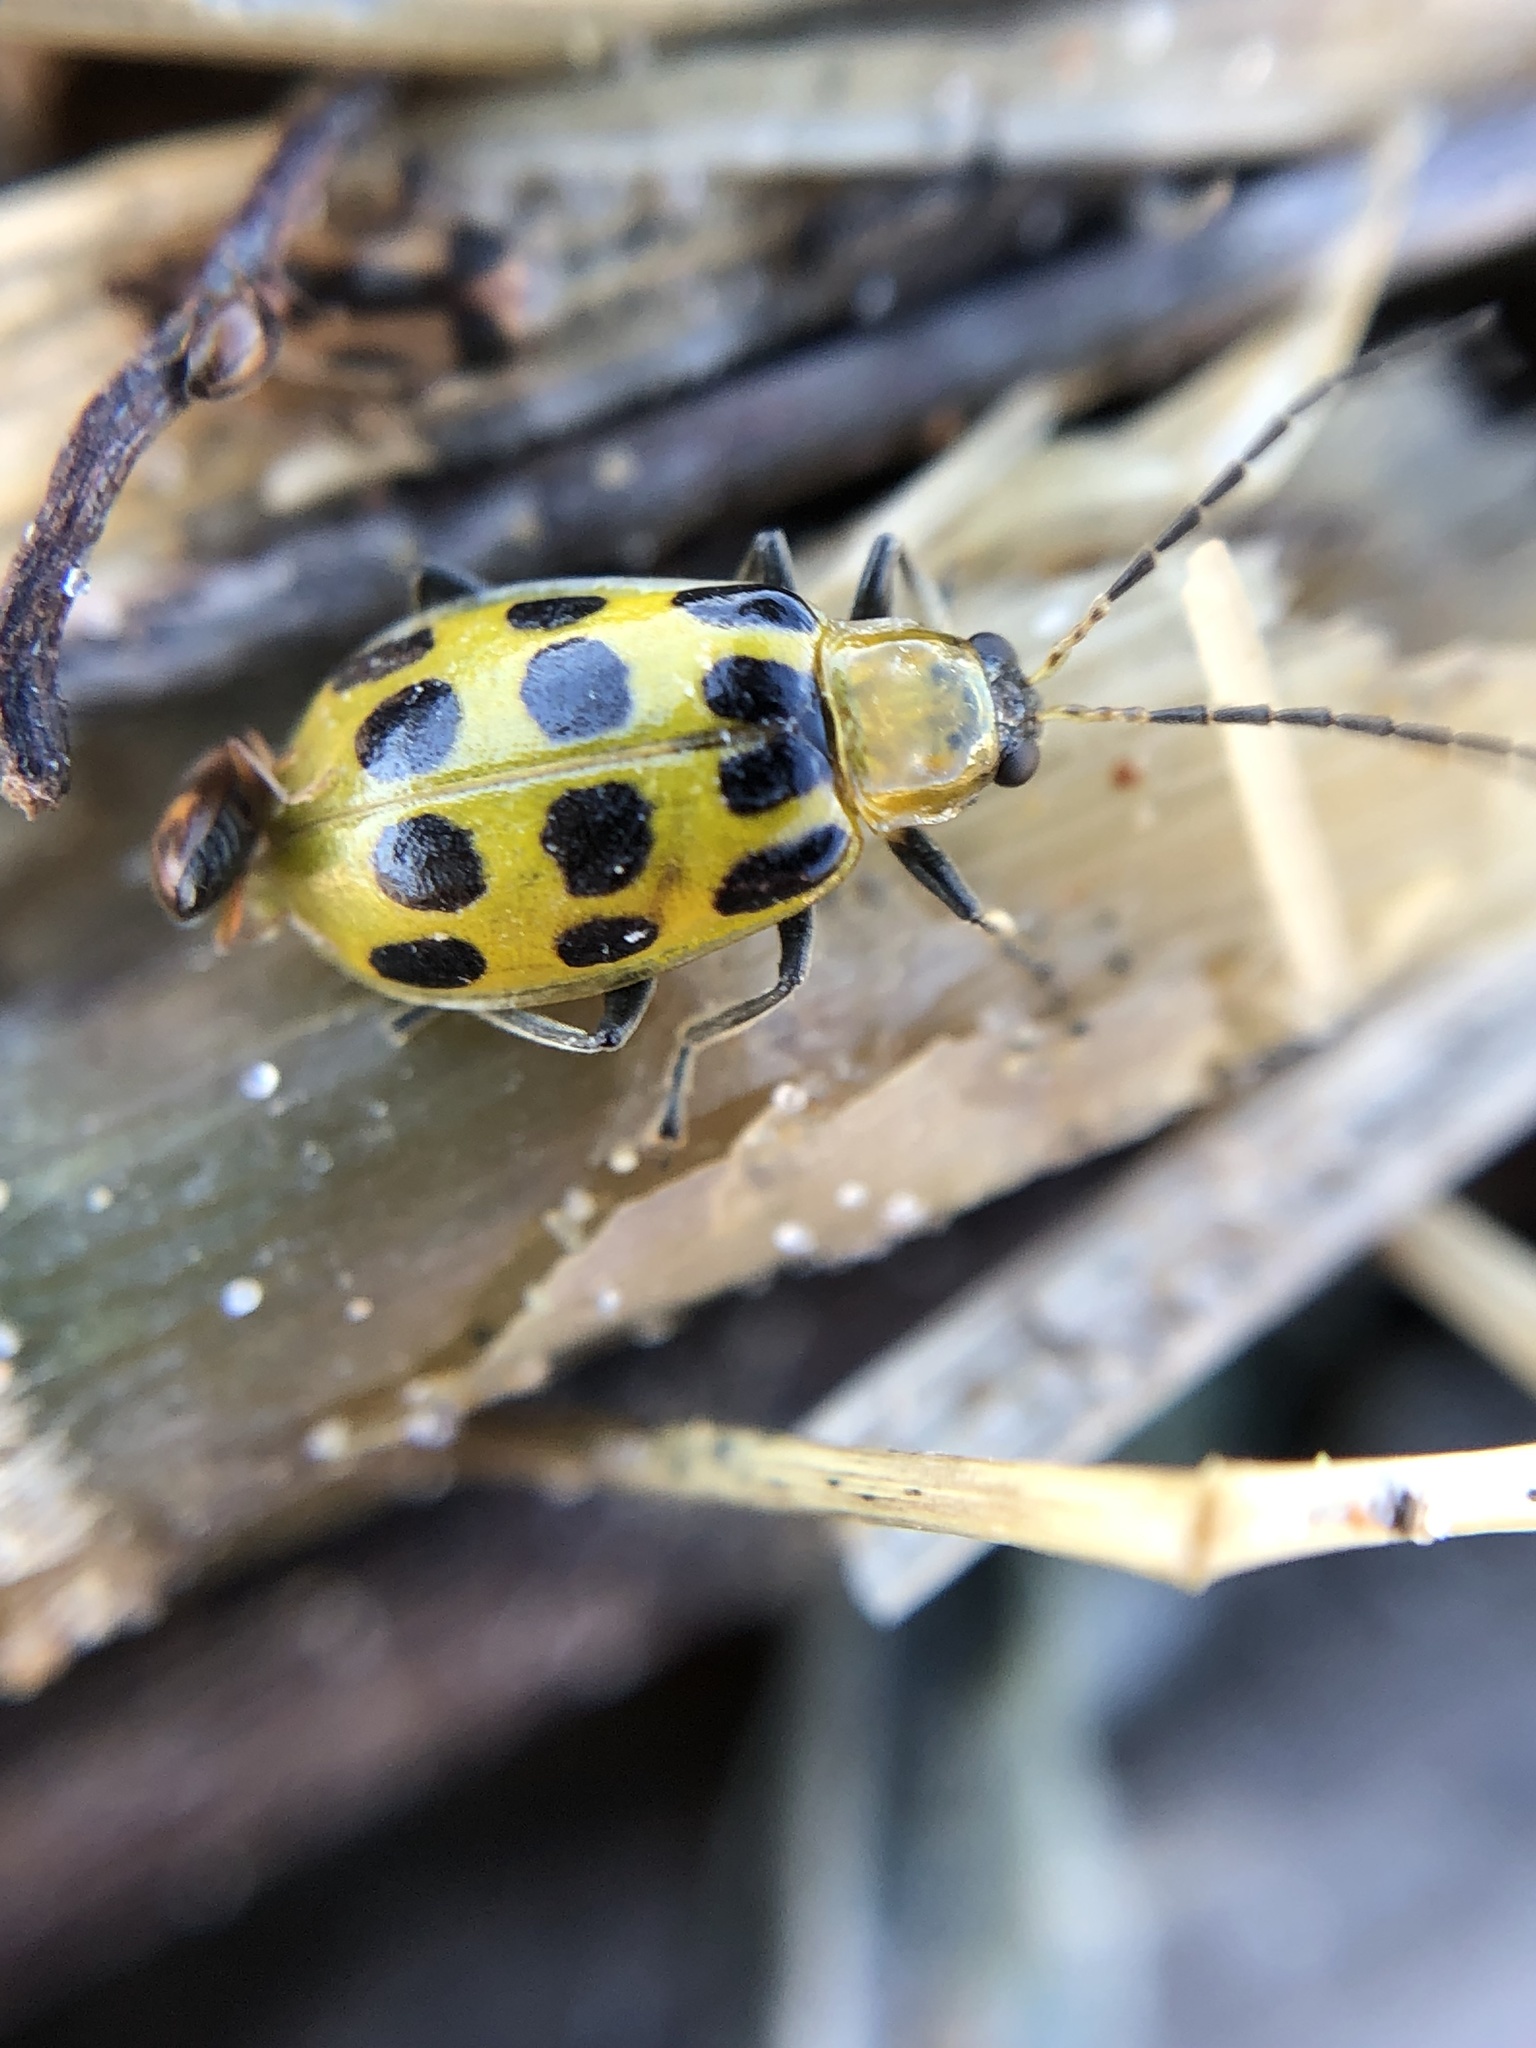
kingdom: Animalia
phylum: Arthropoda
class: Insecta
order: Coleoptera
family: Chrysomelidae
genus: Diabrotica
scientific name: Diabrotica undecimpunctata
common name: Spotted cucumber beetle
